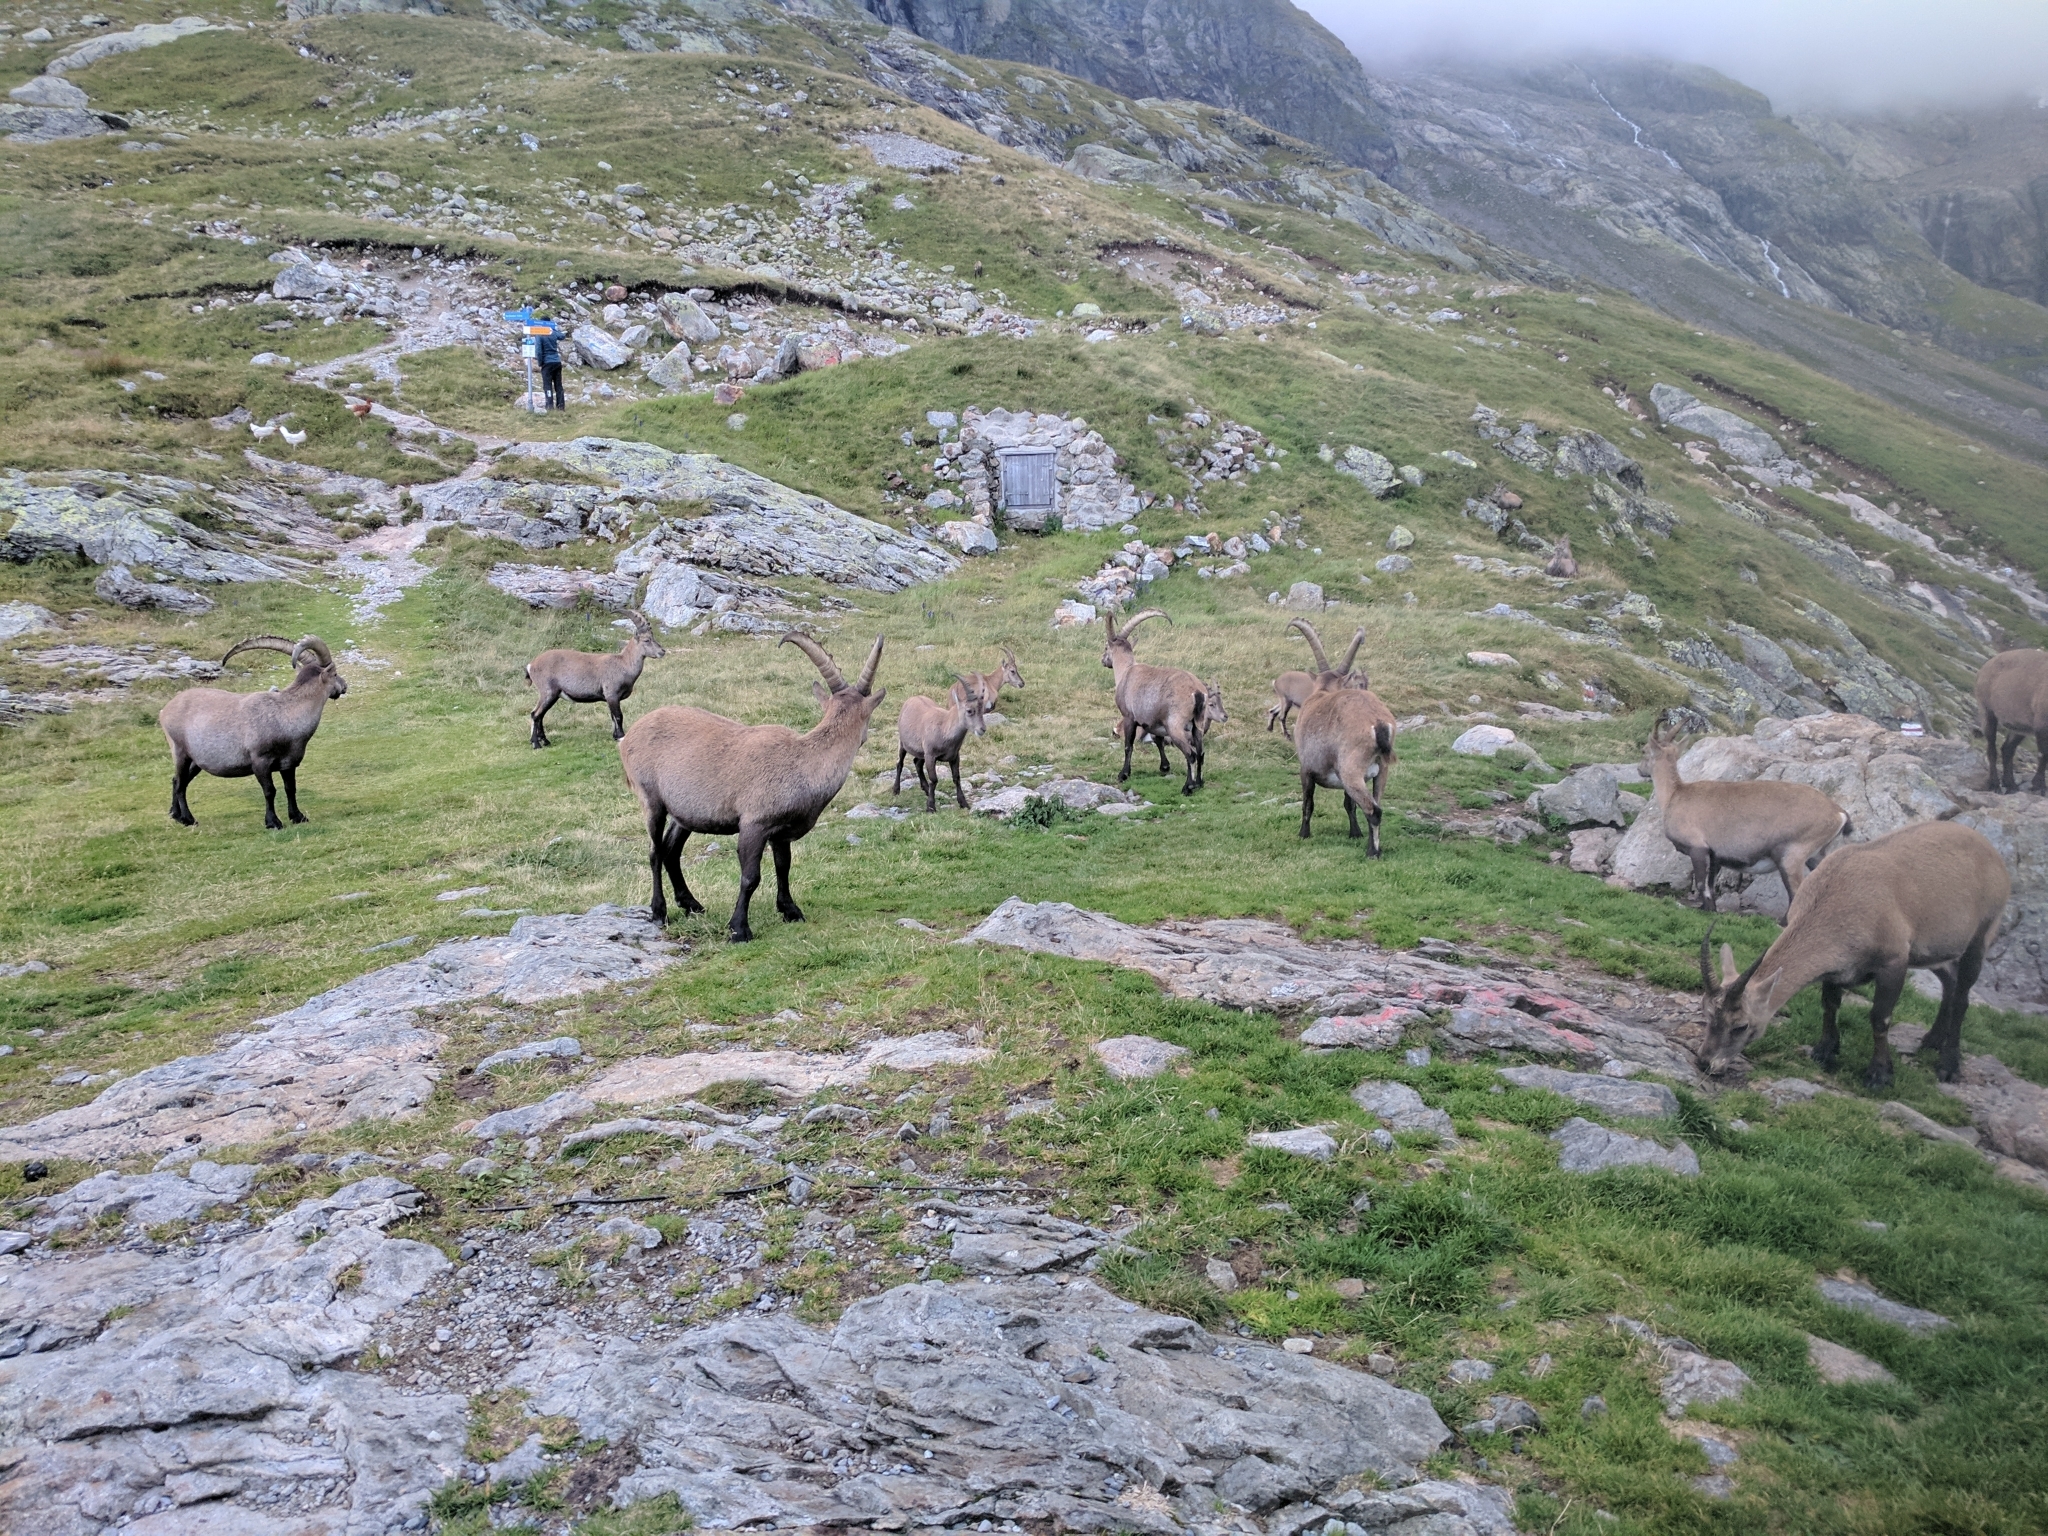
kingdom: Animalia
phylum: Chordata
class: Mammalia
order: Artiodactyla
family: Bovidae
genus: Capra
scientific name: Capra ibex
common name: Alpine ibex
